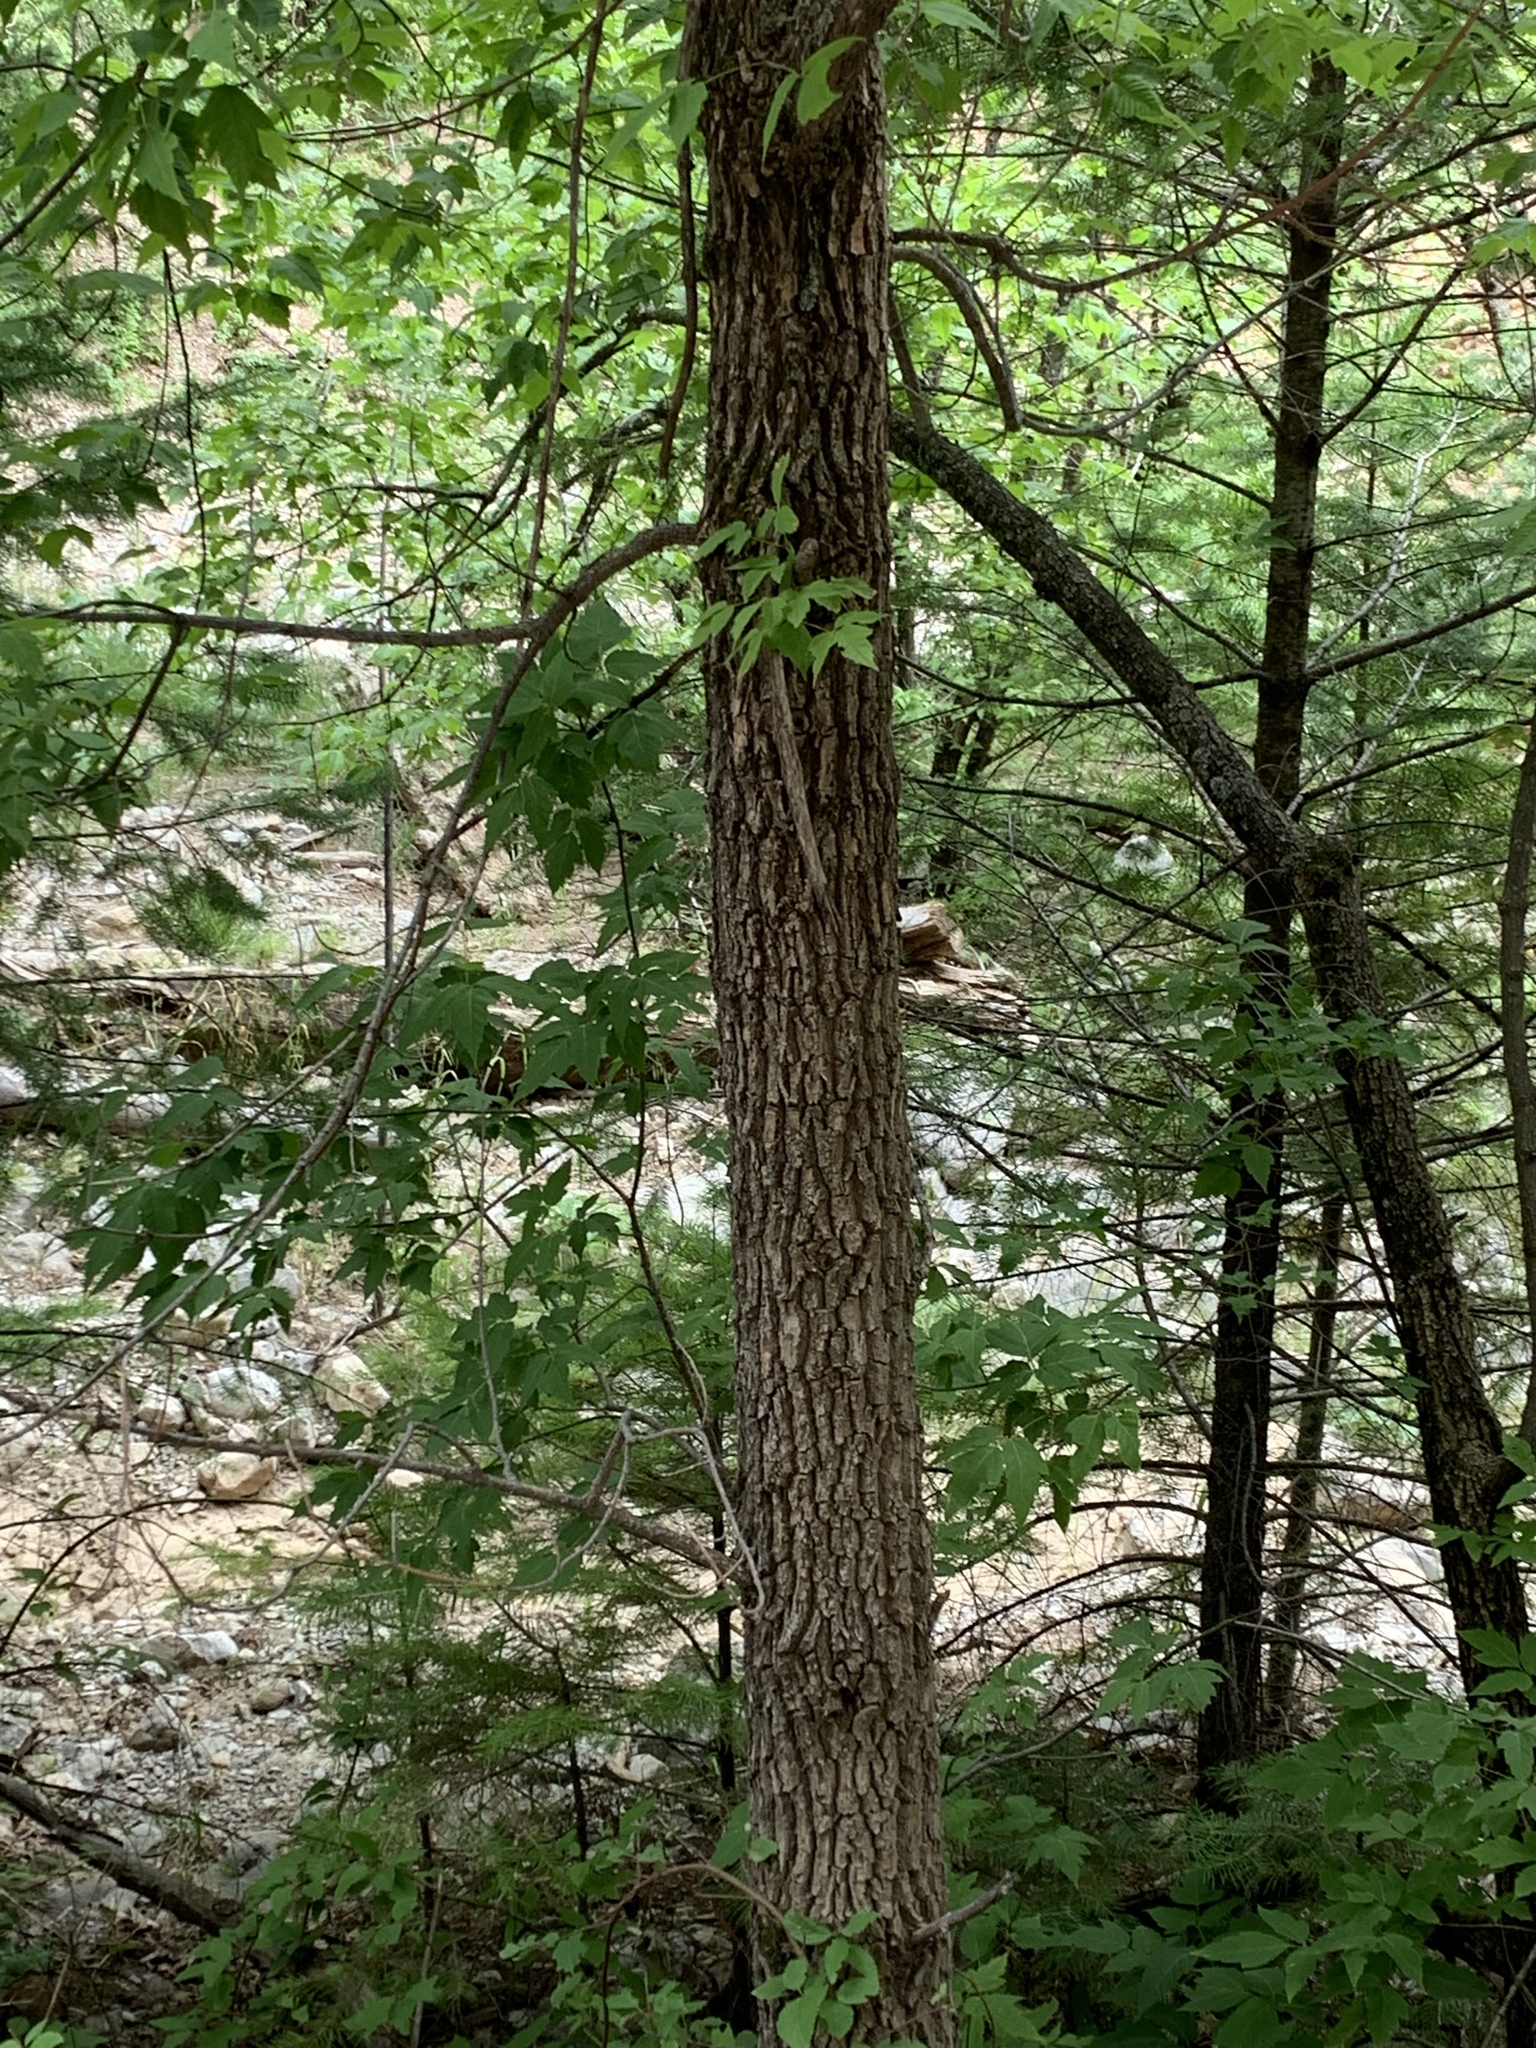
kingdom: Plantae
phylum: Tracheophyta
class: Magnoliopsida
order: Sapindales
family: Sapindaceae
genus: Acer
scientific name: Acer negundo
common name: Ashleaf maple
